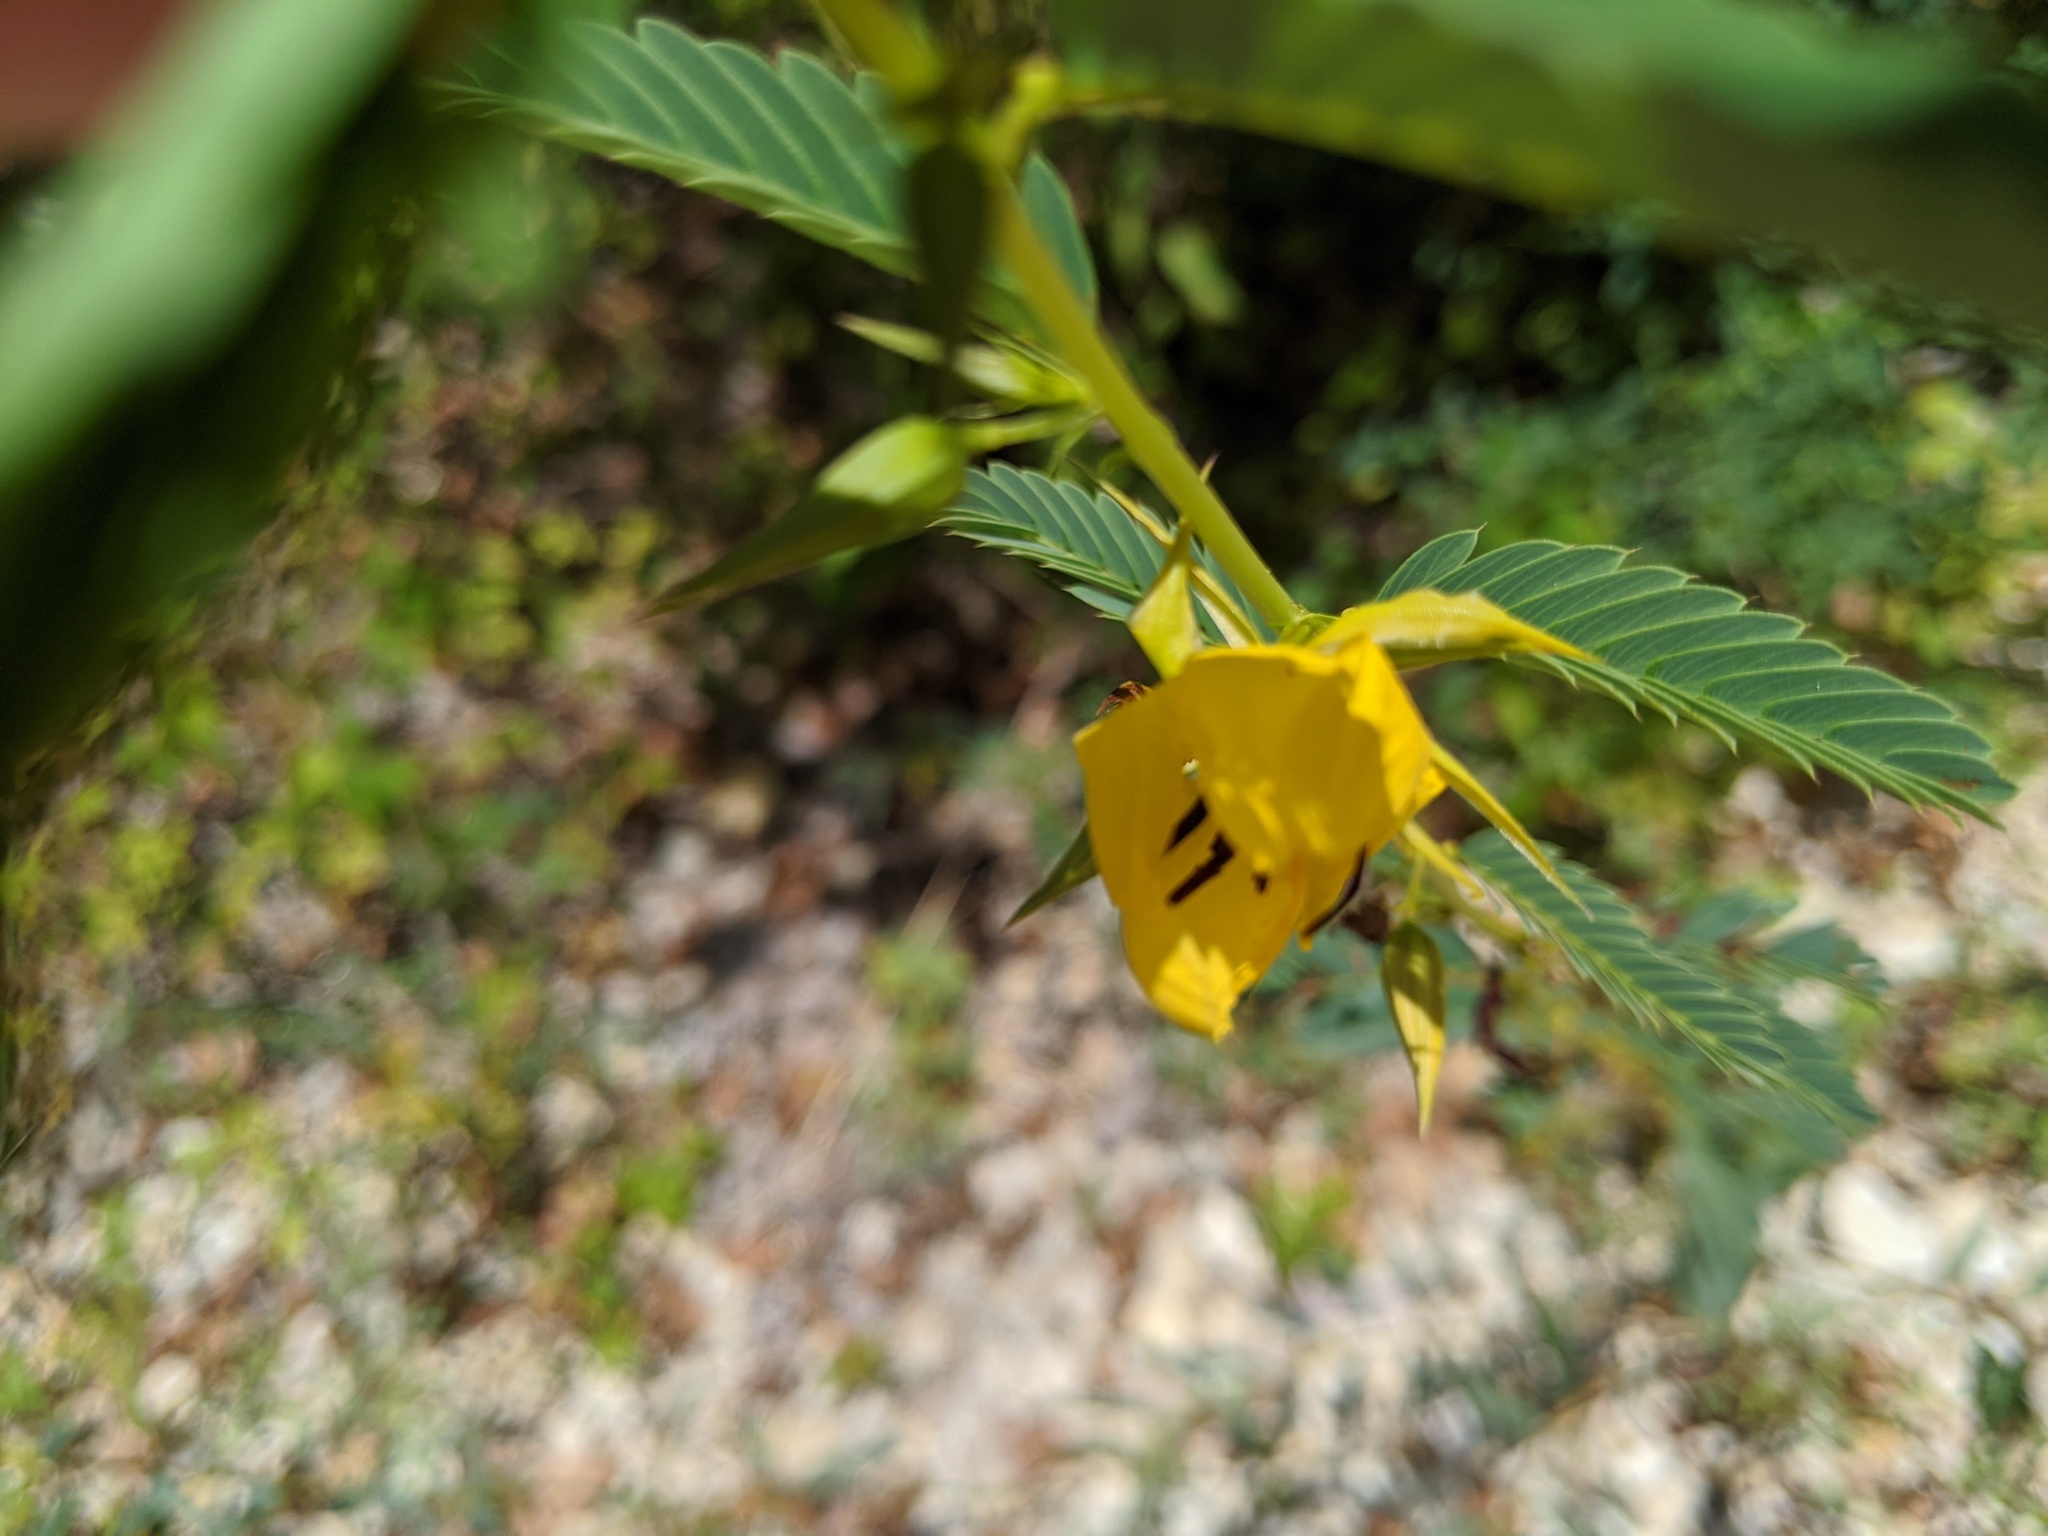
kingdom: Plantae
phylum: Tracheophyta
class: Magnoliopsida
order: Fabales
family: Fabaceae
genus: Chamaecrista
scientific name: Chamaecrista fasciculata
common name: Golden cassia
